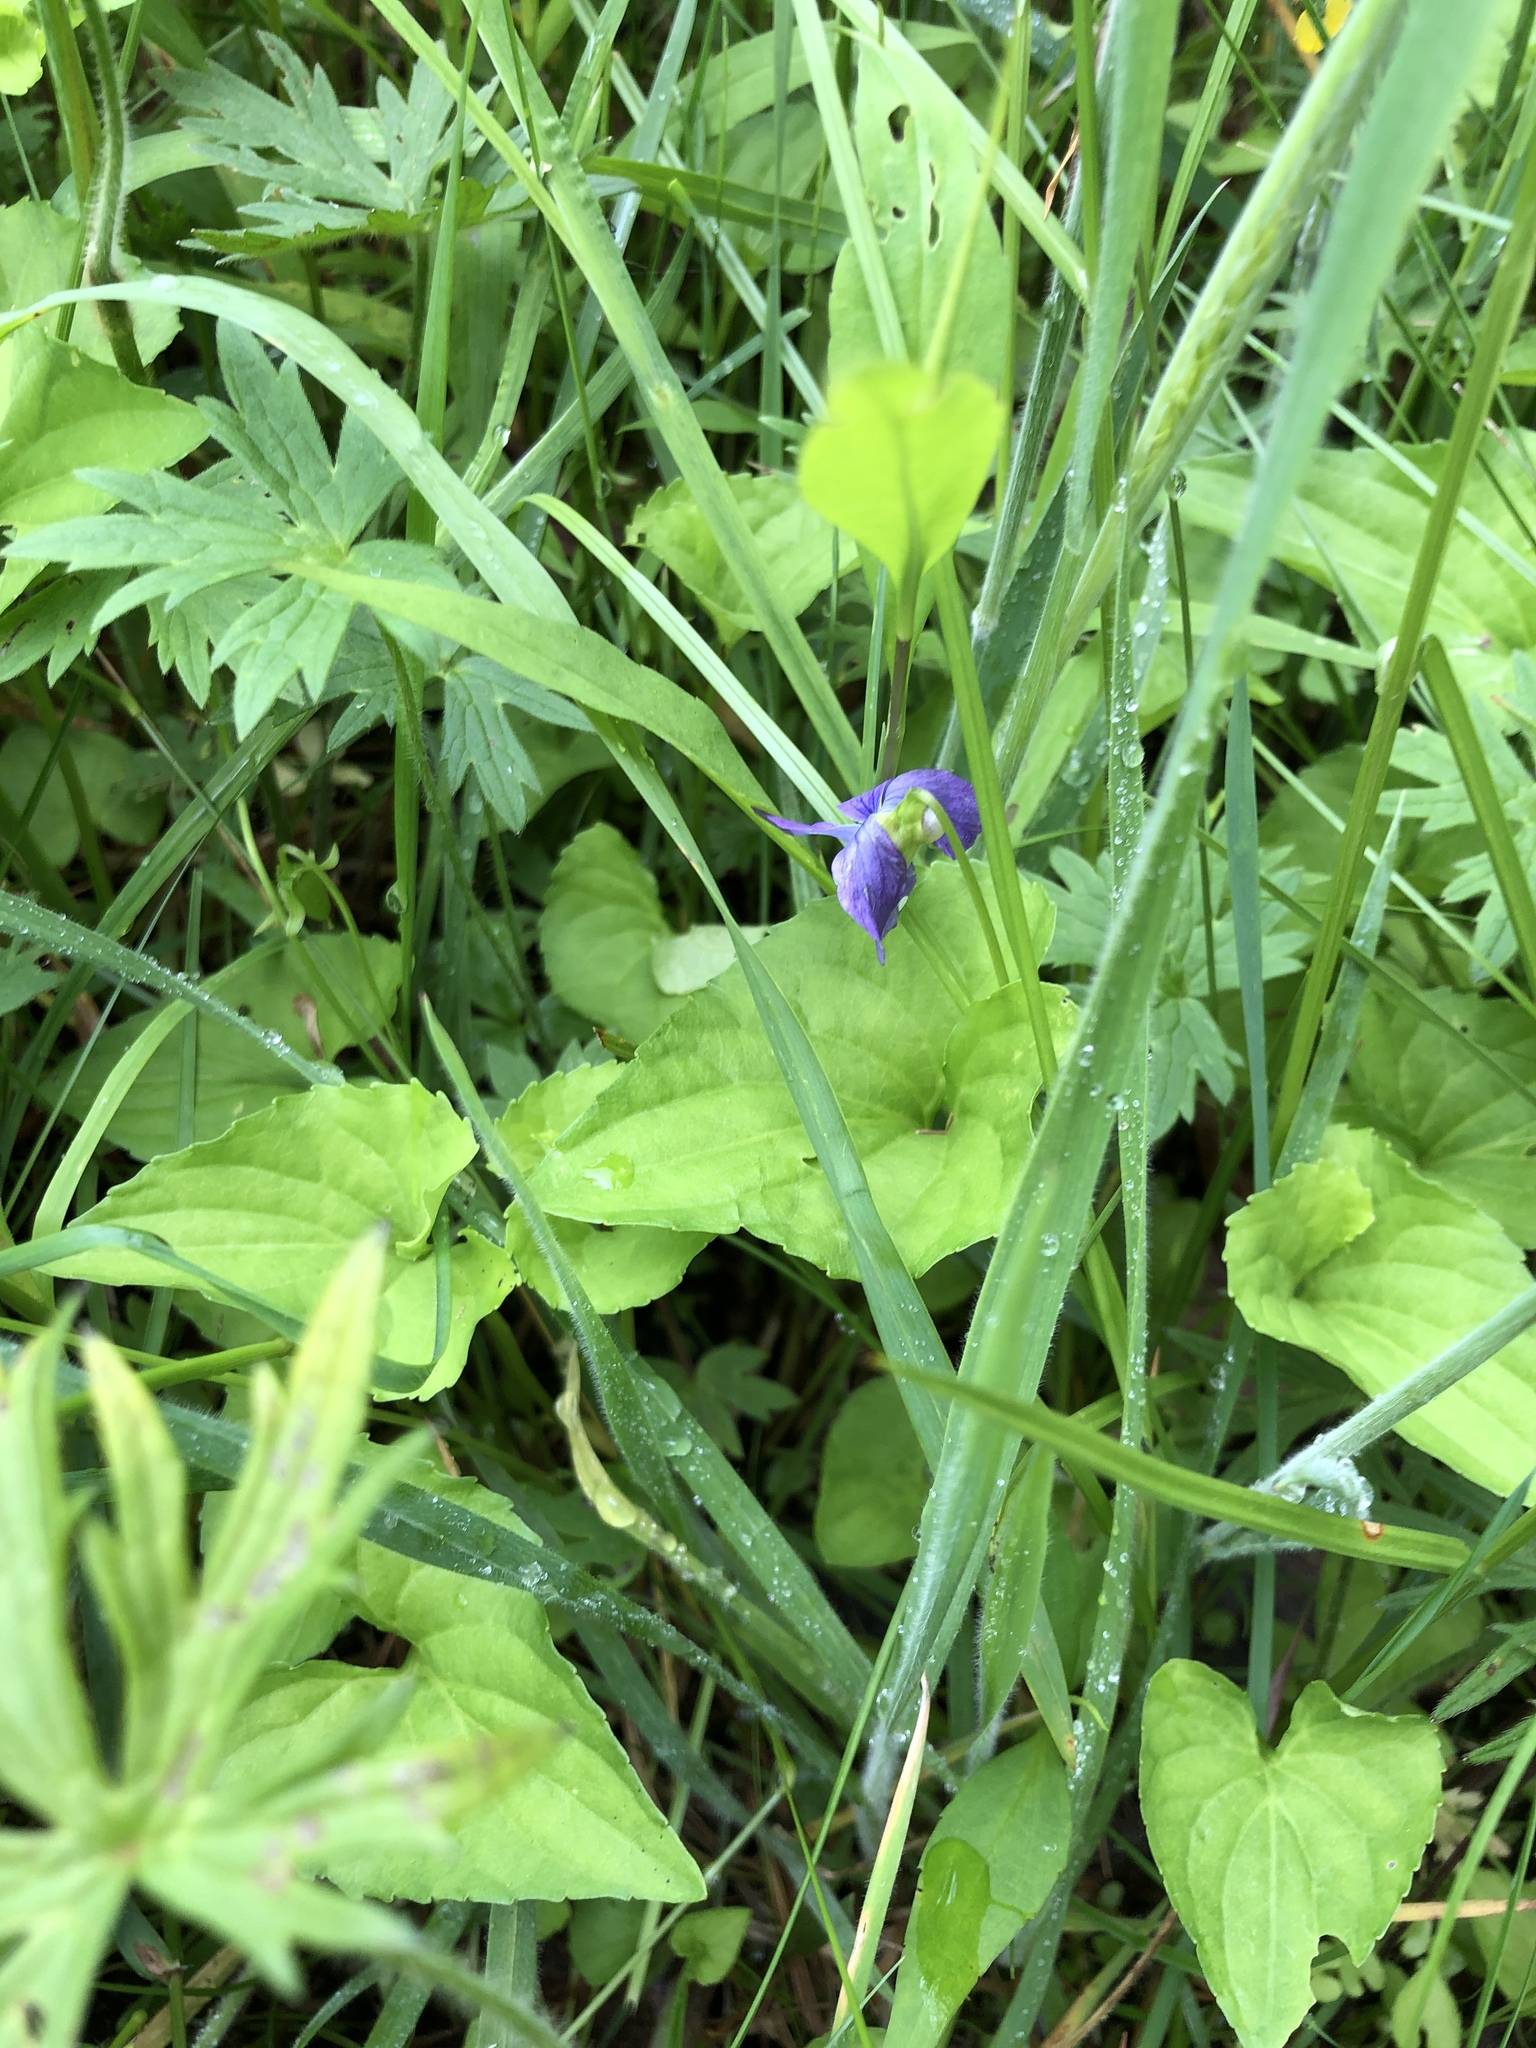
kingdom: Plantae
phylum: Tracheophyta
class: Magnoliopsida
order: Malpighiales
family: Violaceae
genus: Viola
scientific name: Viola sororia
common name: Dooryard violet
